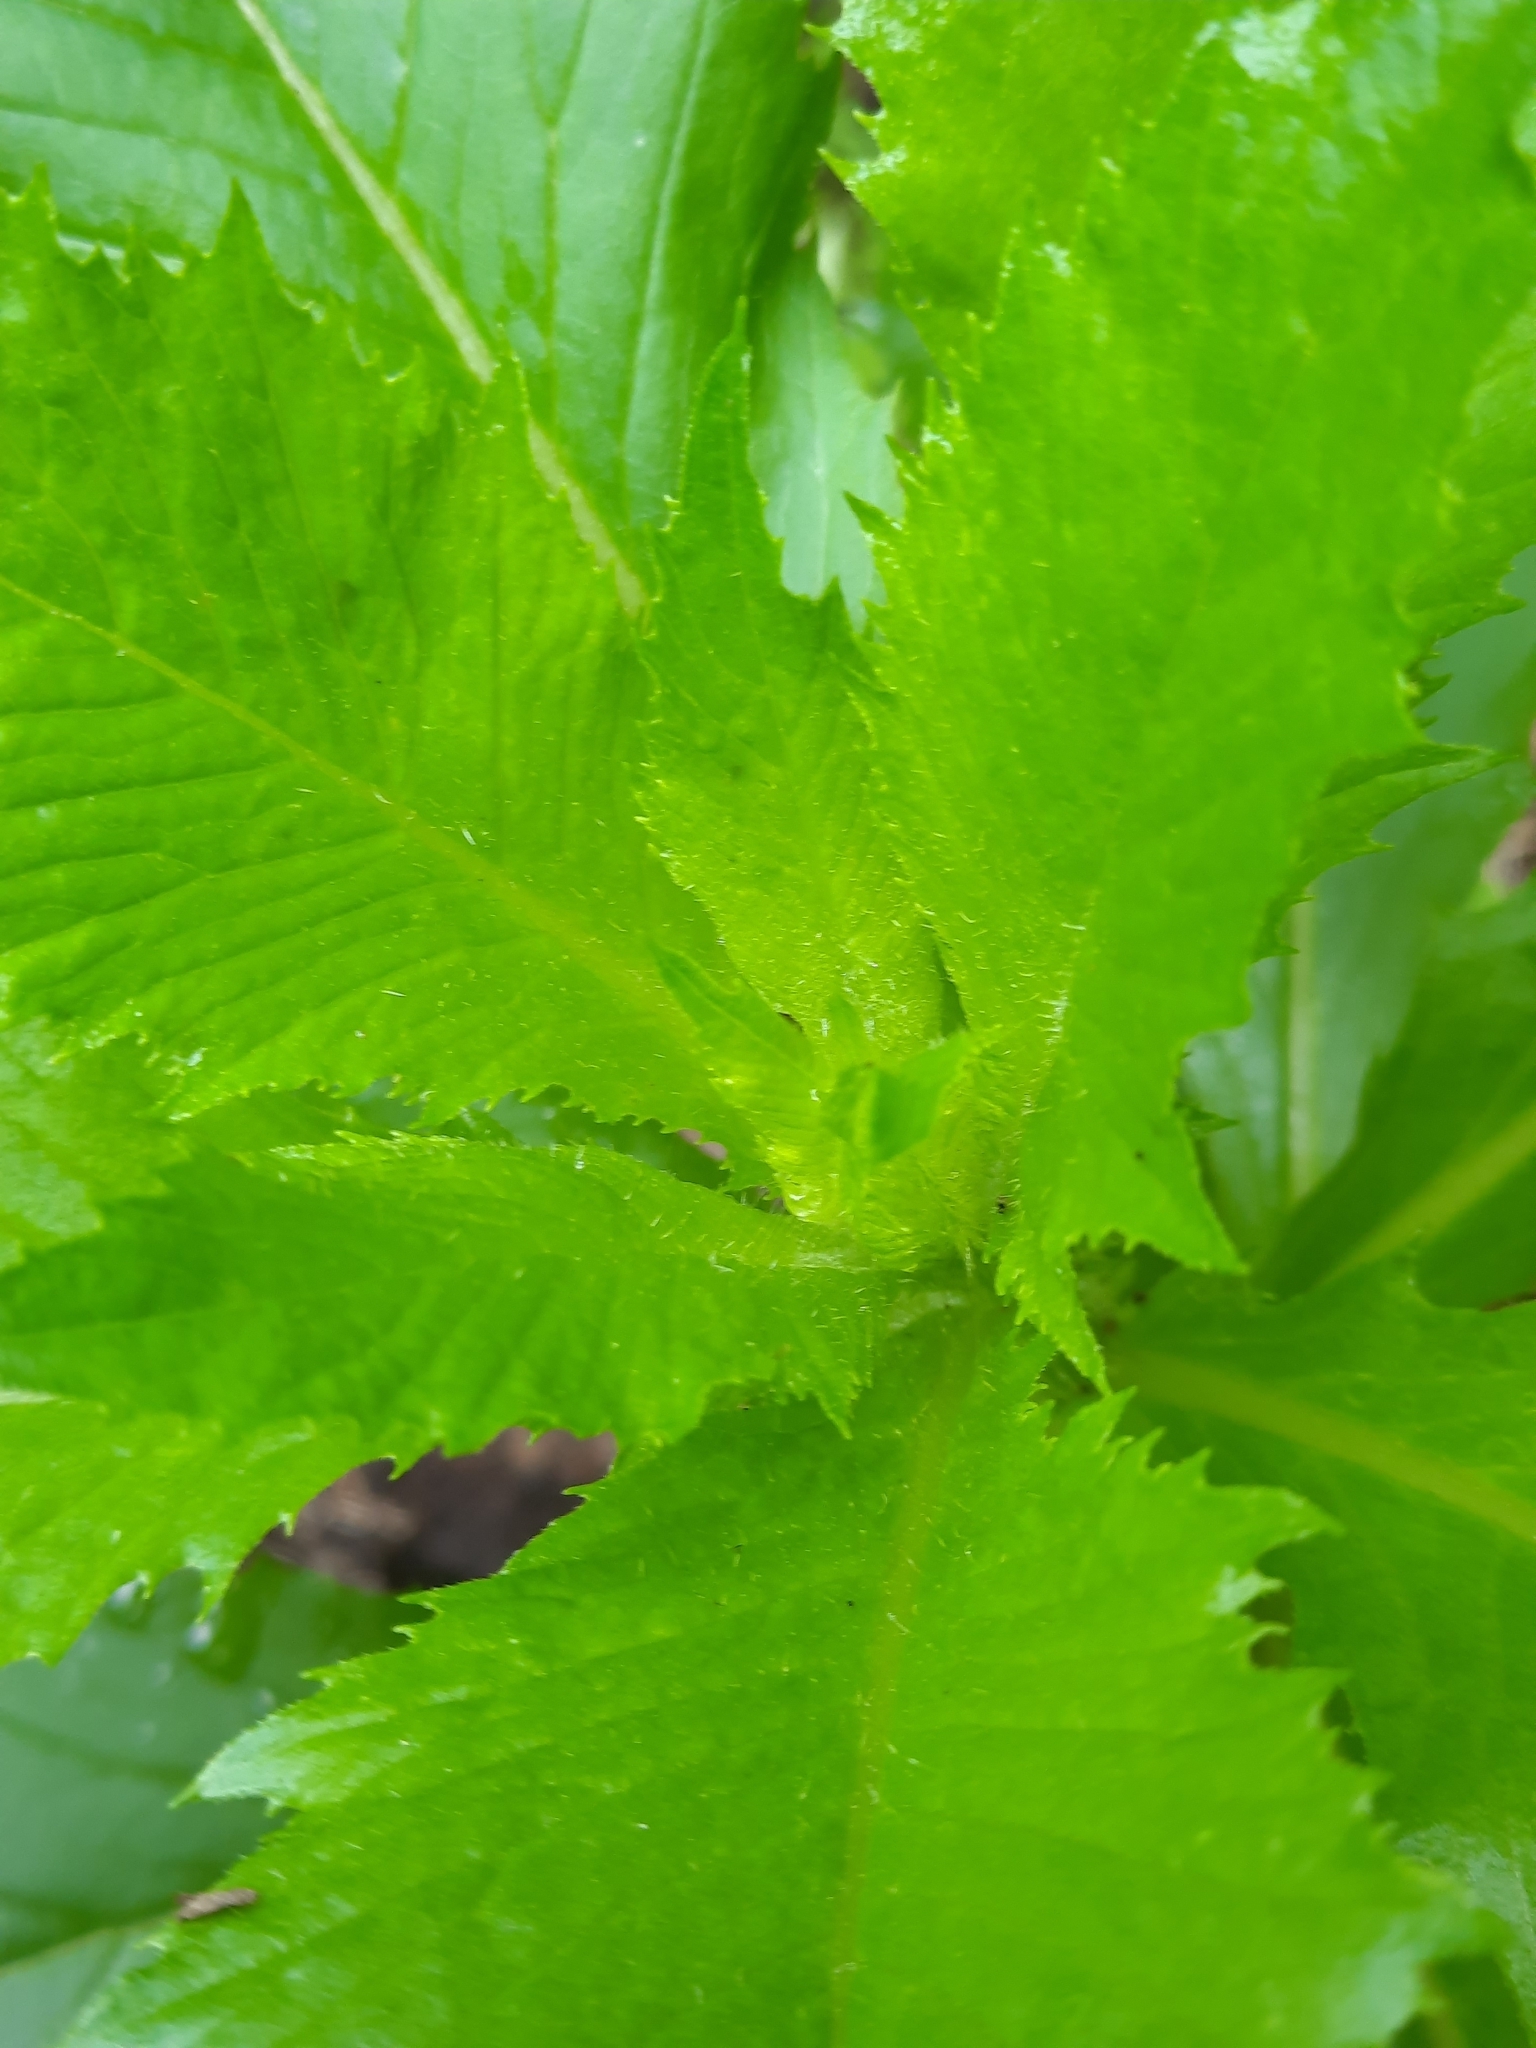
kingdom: Plantae
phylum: Tracheophyta
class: Magnoliopsida
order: Asterales
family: Asteraceae
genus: Erechtites
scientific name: Erechtites hieraciifolius
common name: American burnweed
